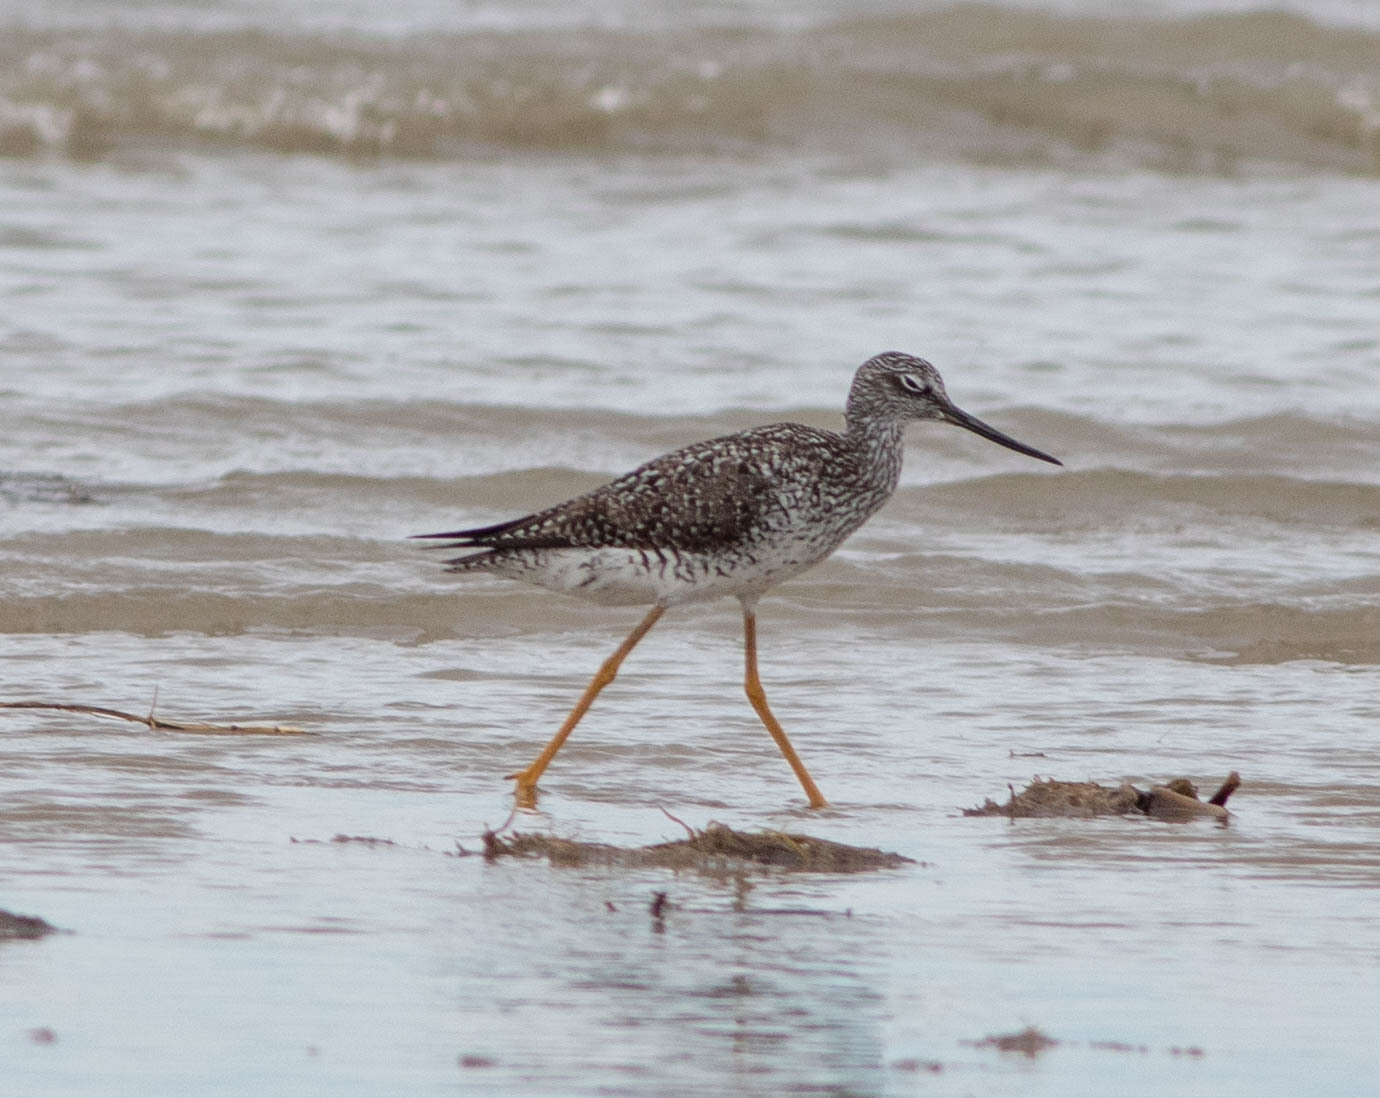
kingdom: Animalia
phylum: Chordata
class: Aves
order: Charadriiformes
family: Scolopacidae
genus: Tringa
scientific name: Tringa melanoleuca
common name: Greater yellowlegs
